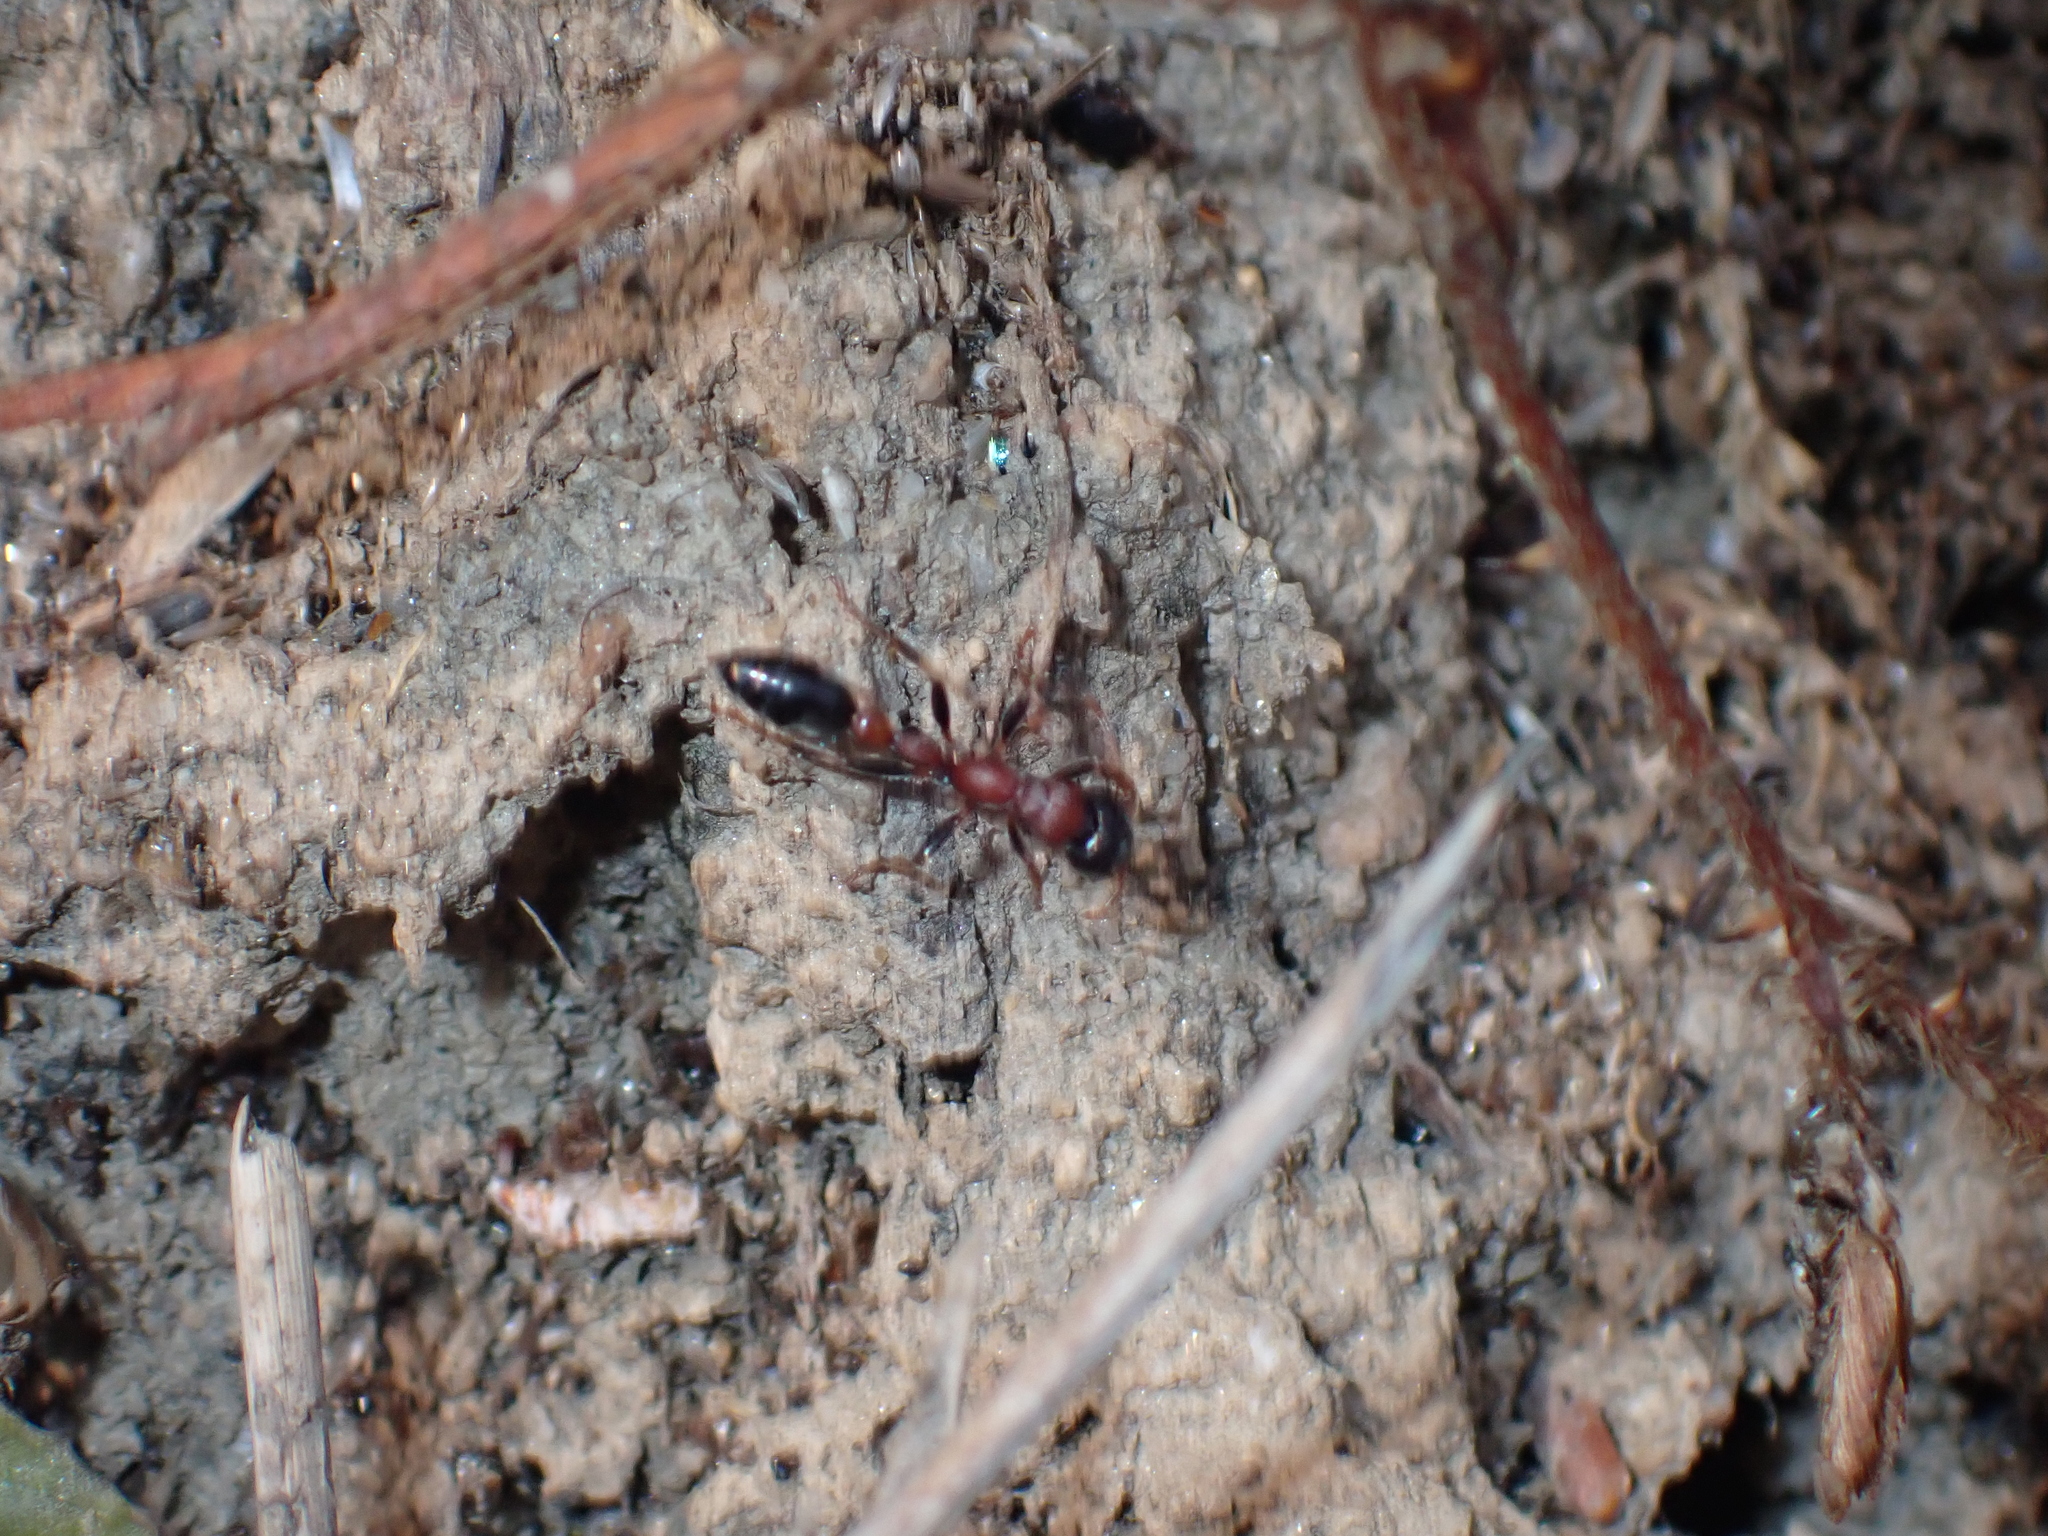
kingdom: Animalia
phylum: Arthropoda
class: Insecta
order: Hymenoptera
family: Formicidae
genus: Tetraponera
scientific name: Tetraponera rufonigra
